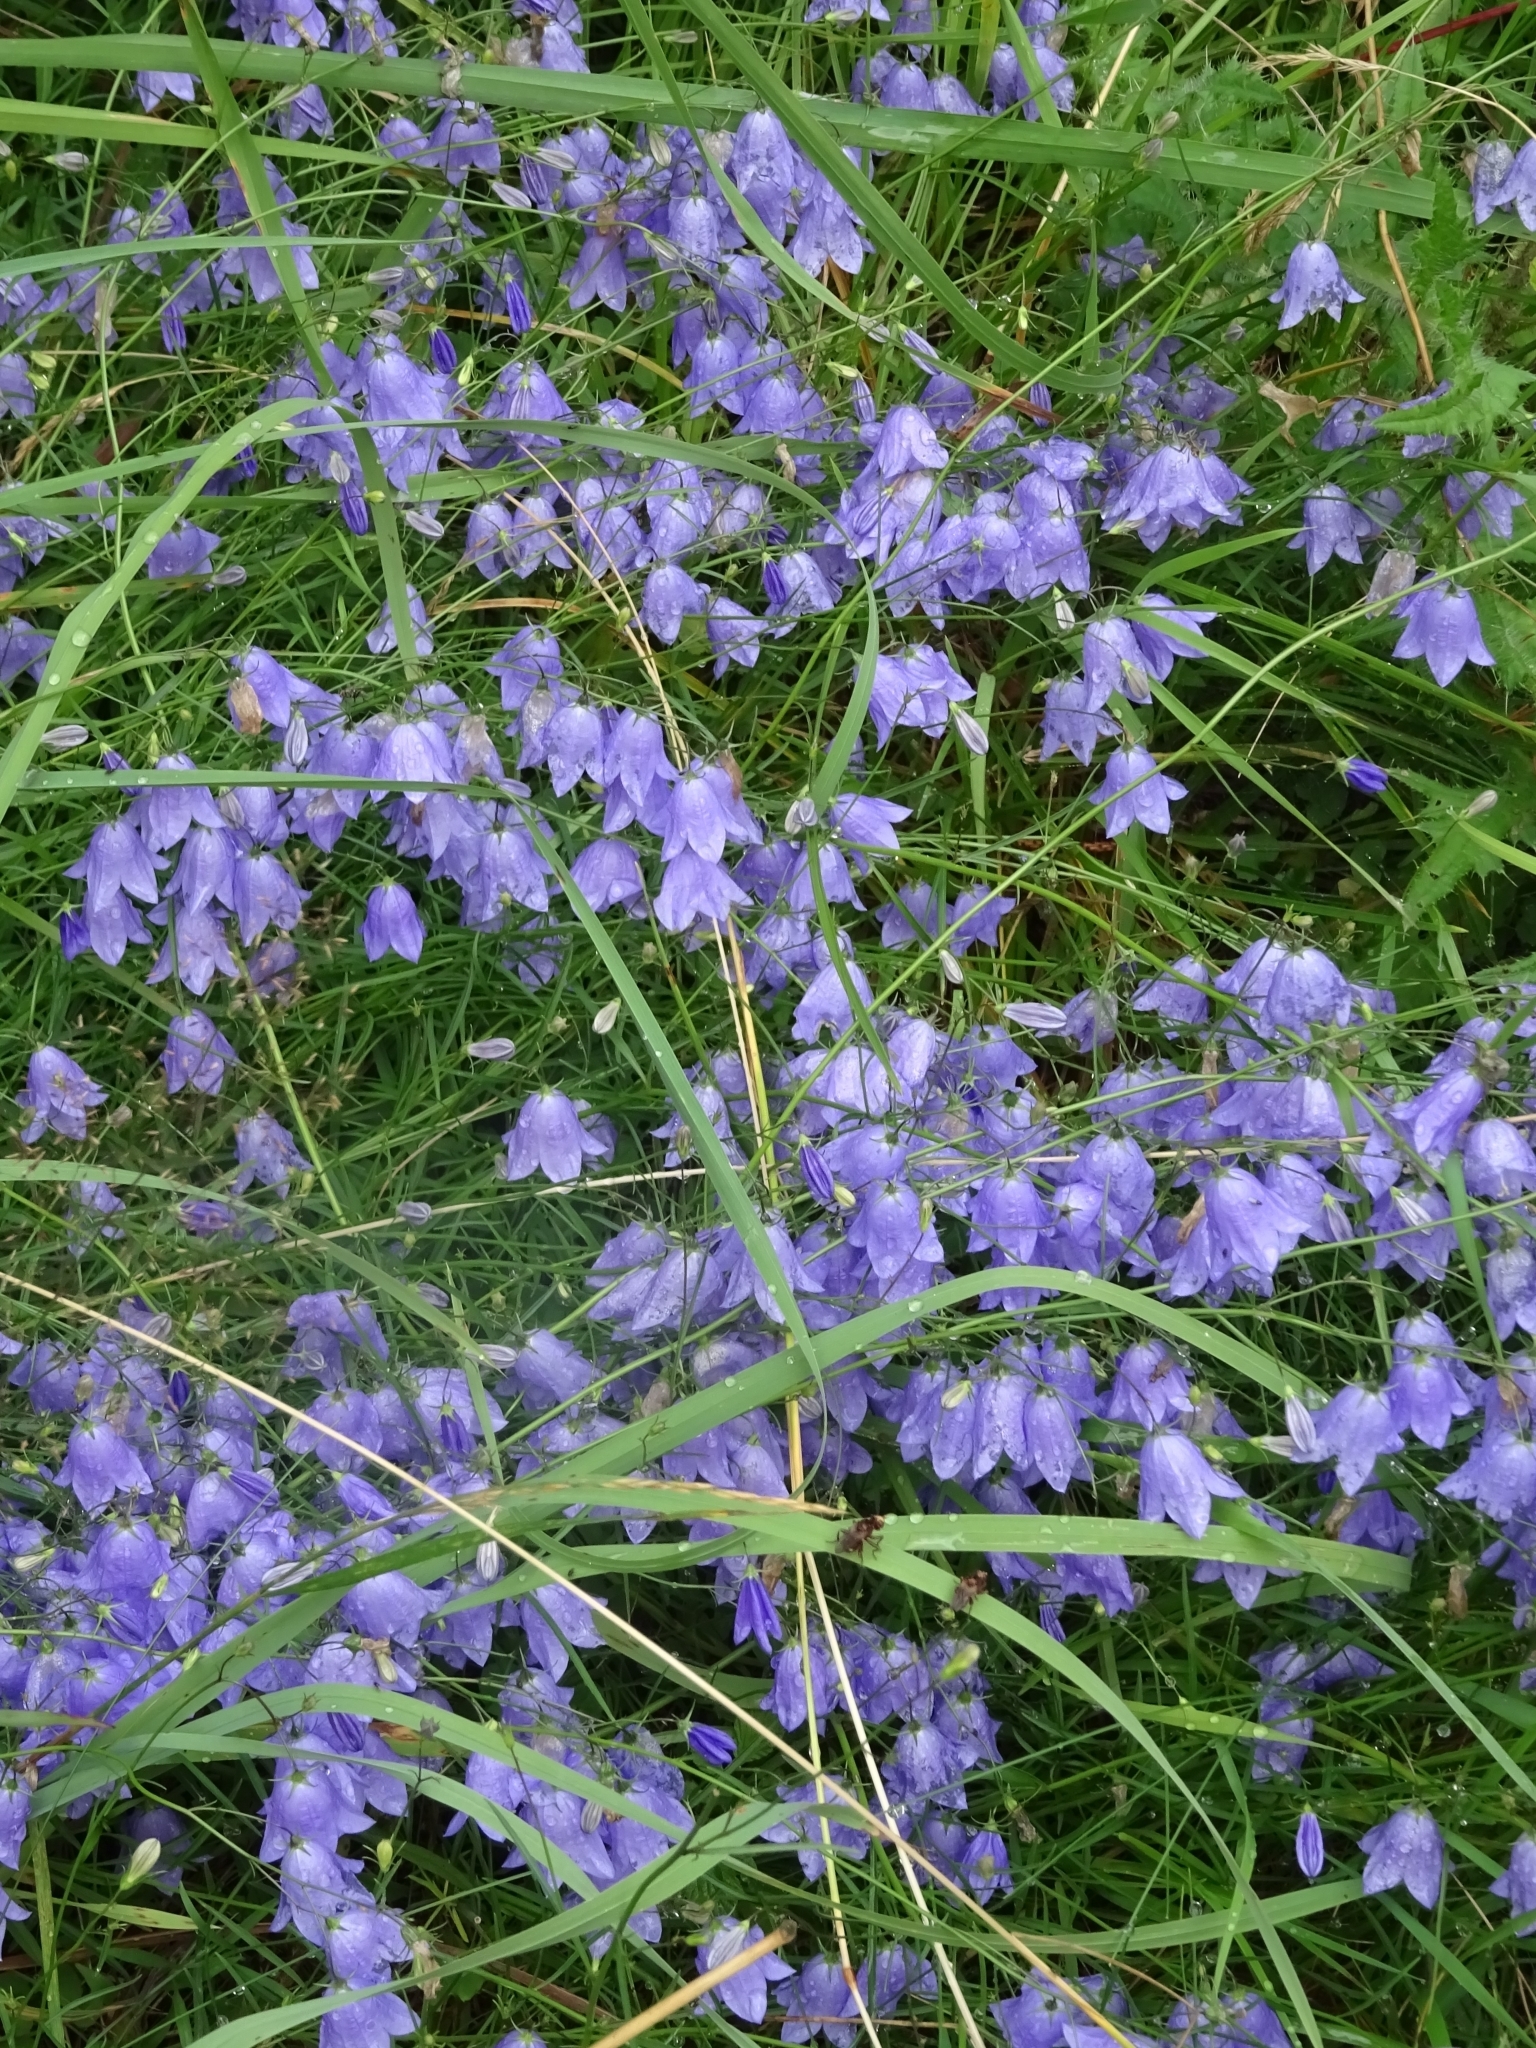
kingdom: Plantae
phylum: Tracheophyta
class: Magnoliopsida
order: Asterales
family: Campanulaceae
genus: Campanula
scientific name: Campanula rotundifolia
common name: Harebell
